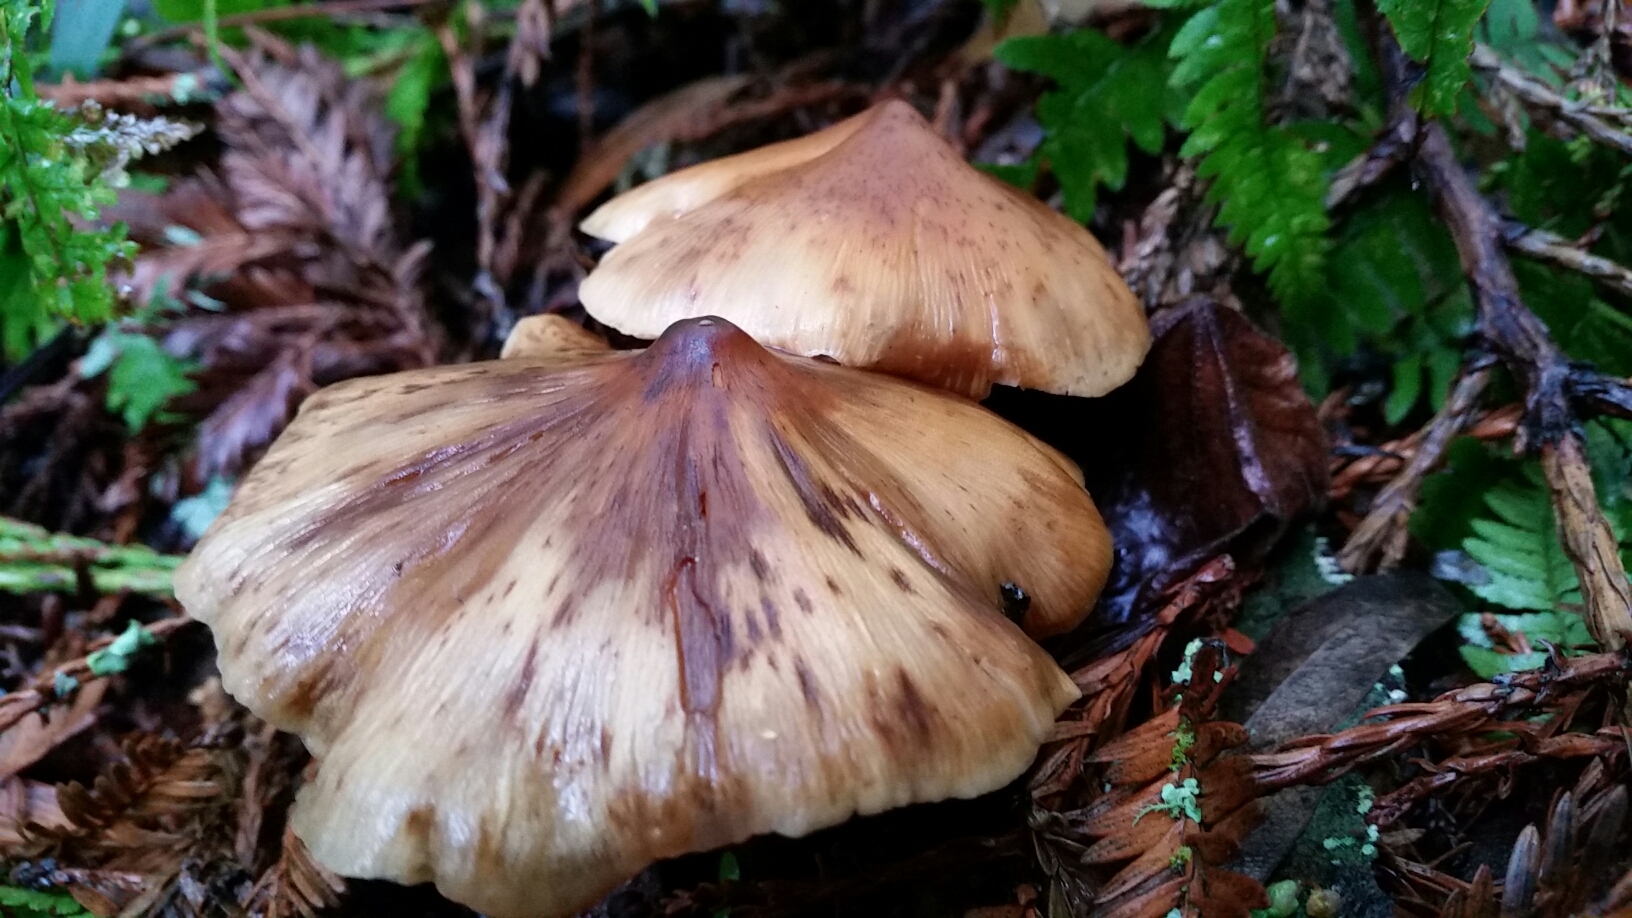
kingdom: Fungi
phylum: Basidiomycota
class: Agaricomycetes
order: Agaricales
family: Tricholomataceae
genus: Caulorhiza
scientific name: Caulorhiza umbonata
